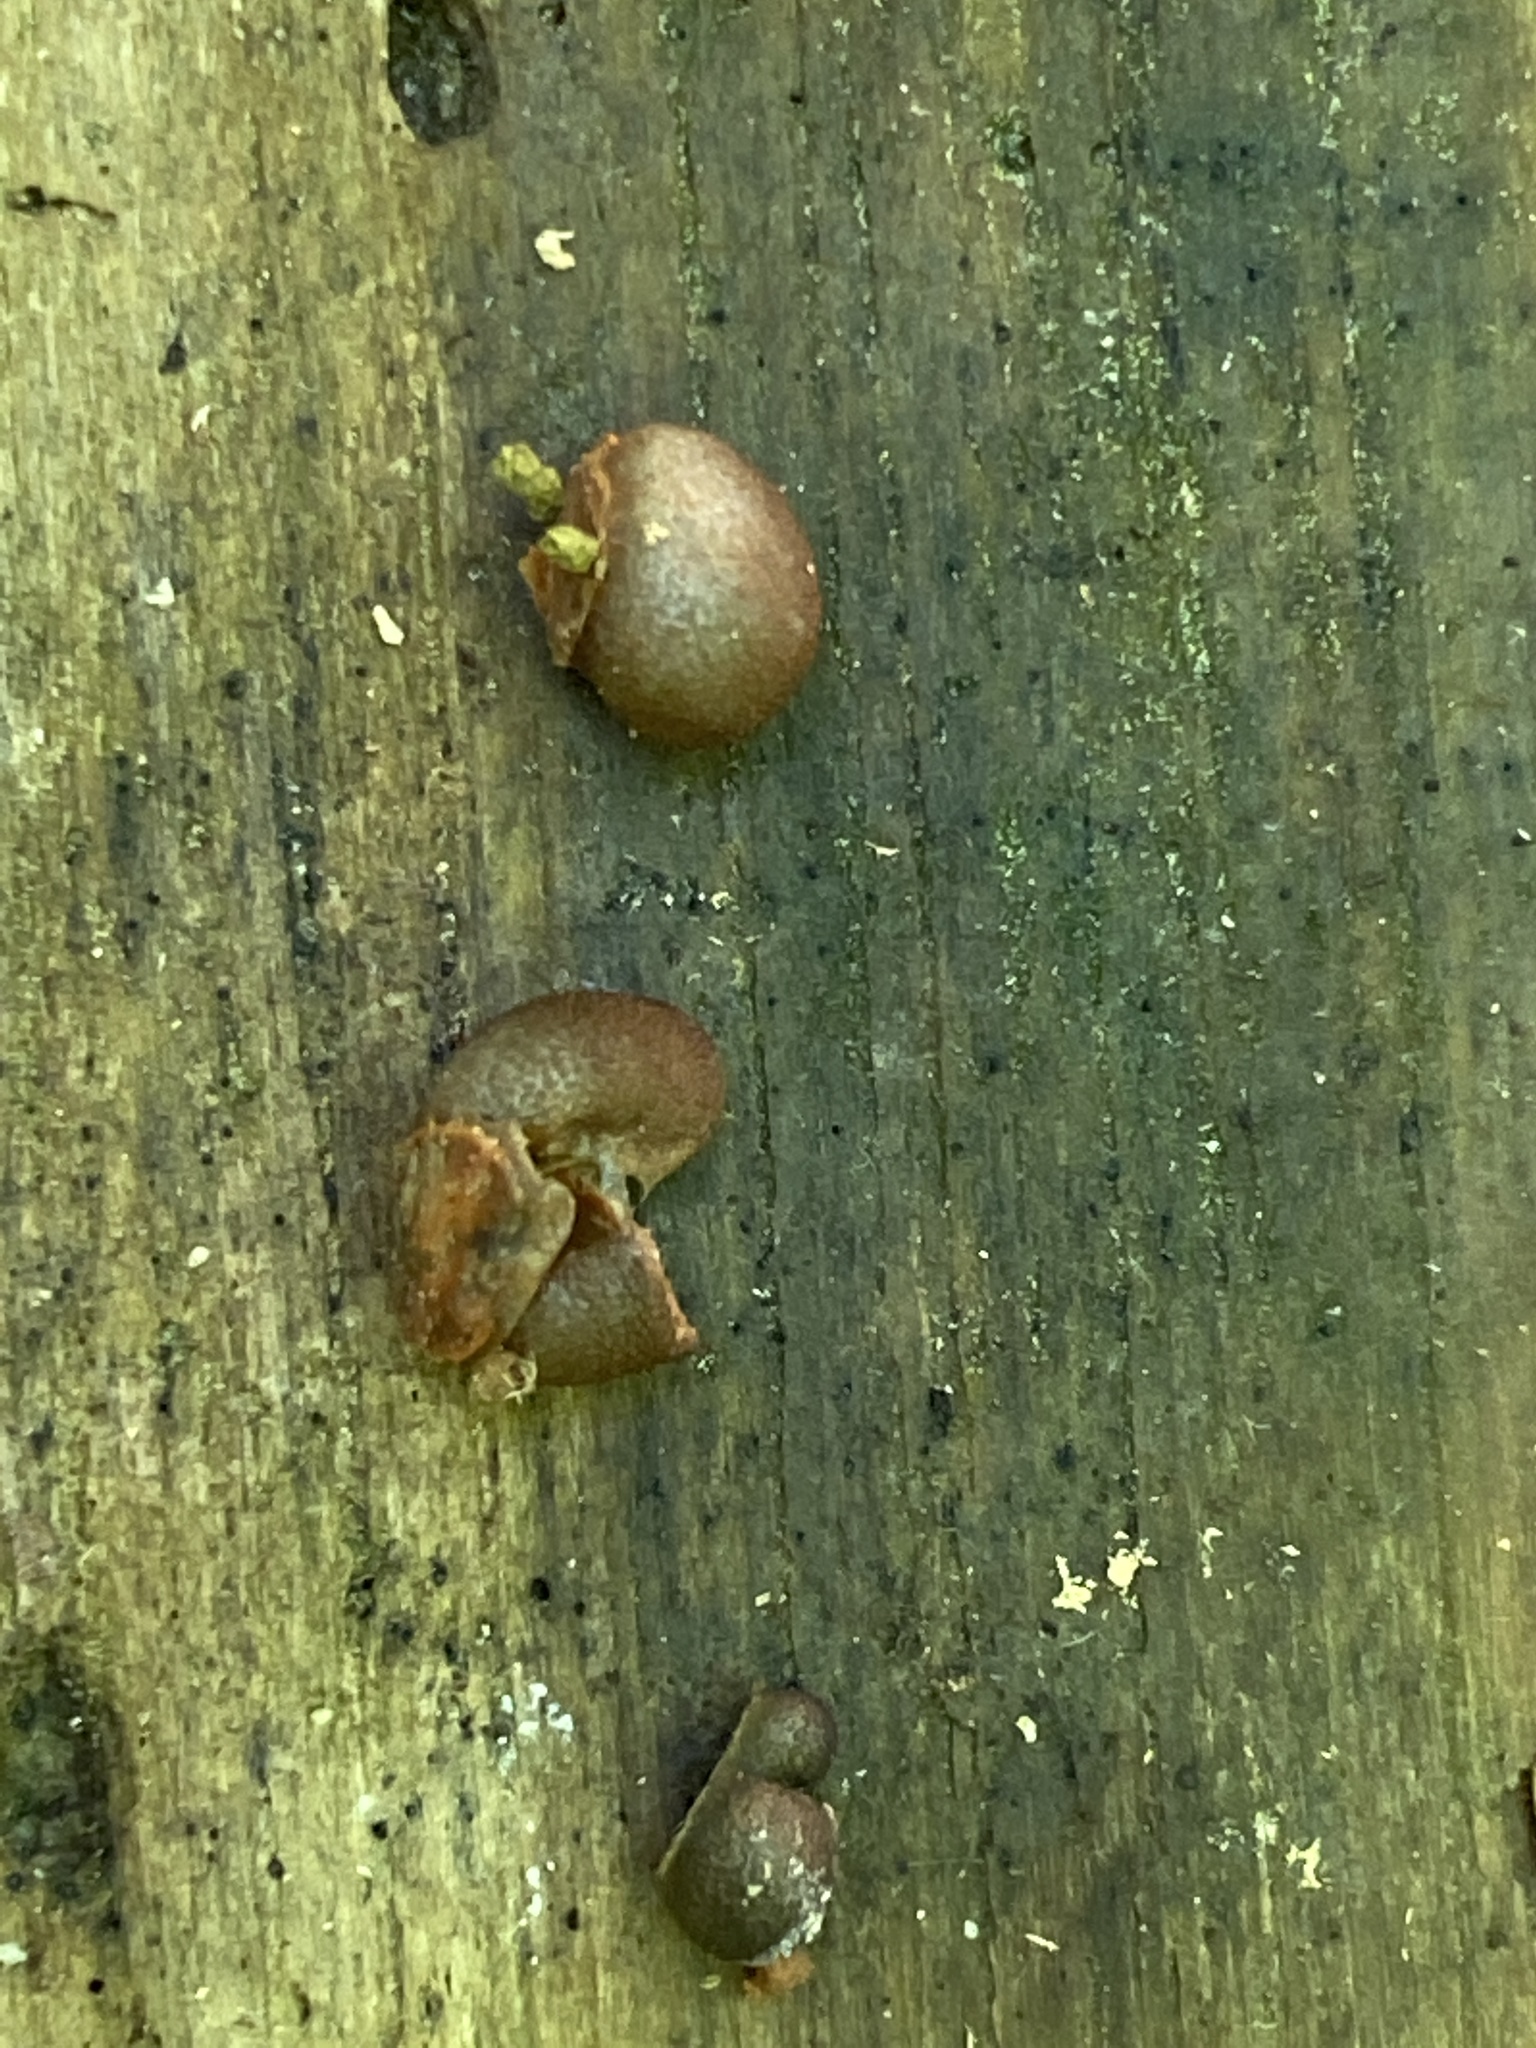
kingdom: Protozoa
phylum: Mycetozoa
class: Myxomycetes
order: Cribrariales
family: Tubiferaceae
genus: Lycogala
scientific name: Lycogala epidendrum
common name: Wolf's milk
